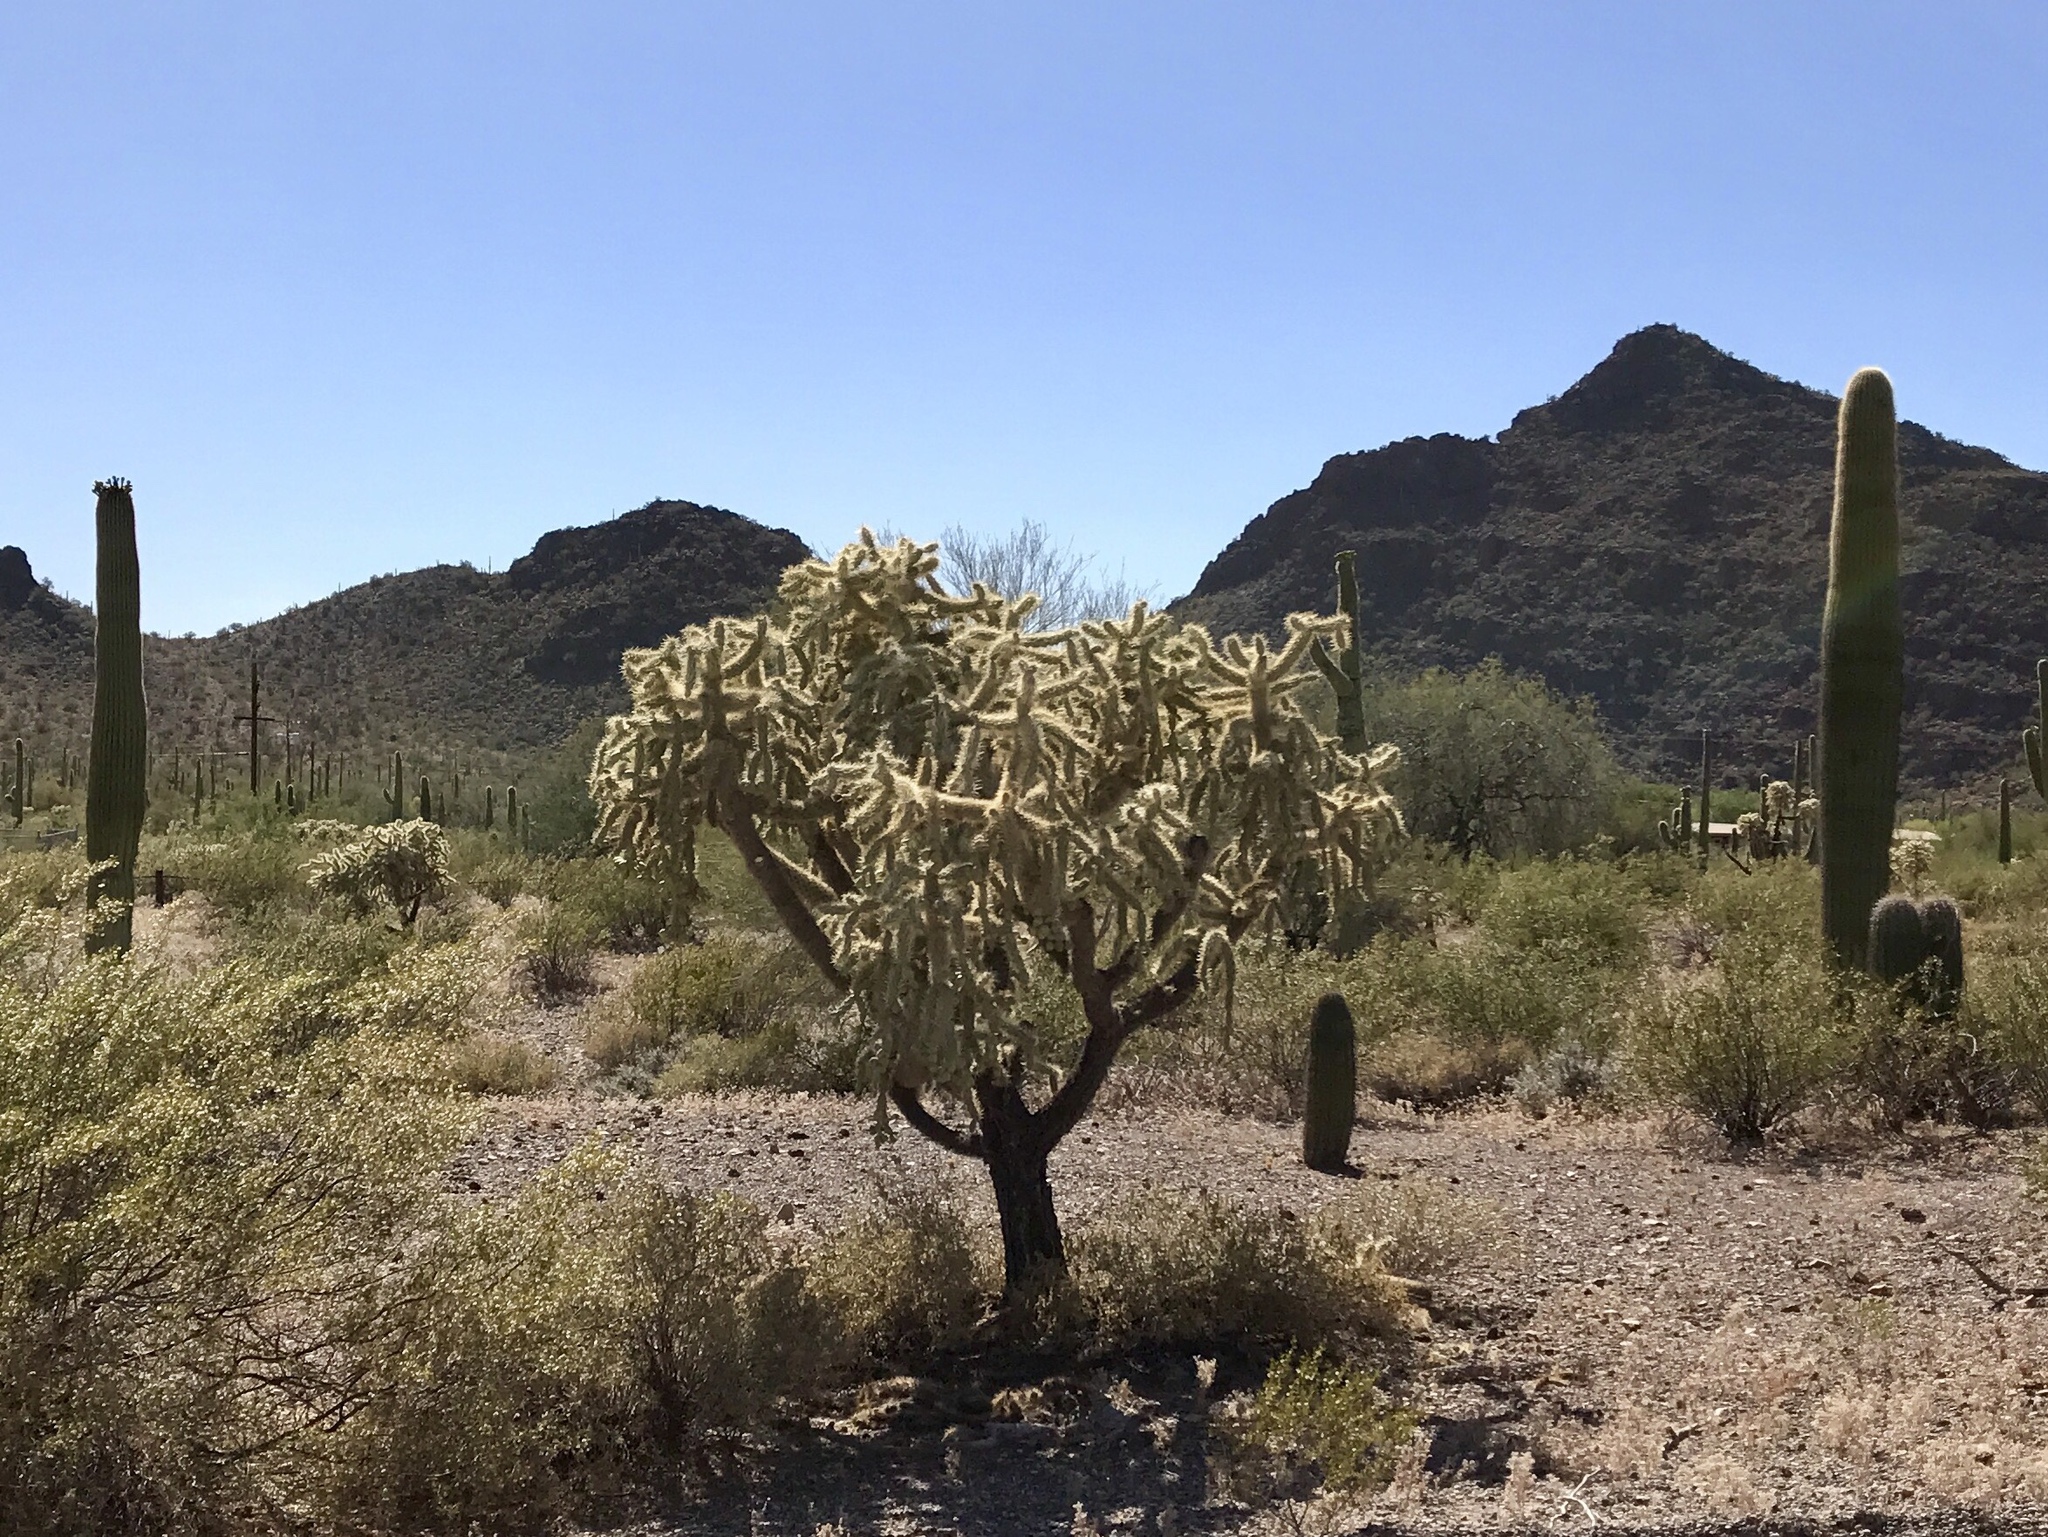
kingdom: Plantae
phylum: Tracheophyta
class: Magnoliopsida
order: Caryophyllales
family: Cactaceae
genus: Cylindropuntia
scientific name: Cylindropuntia fulgida
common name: Jumping cholla
